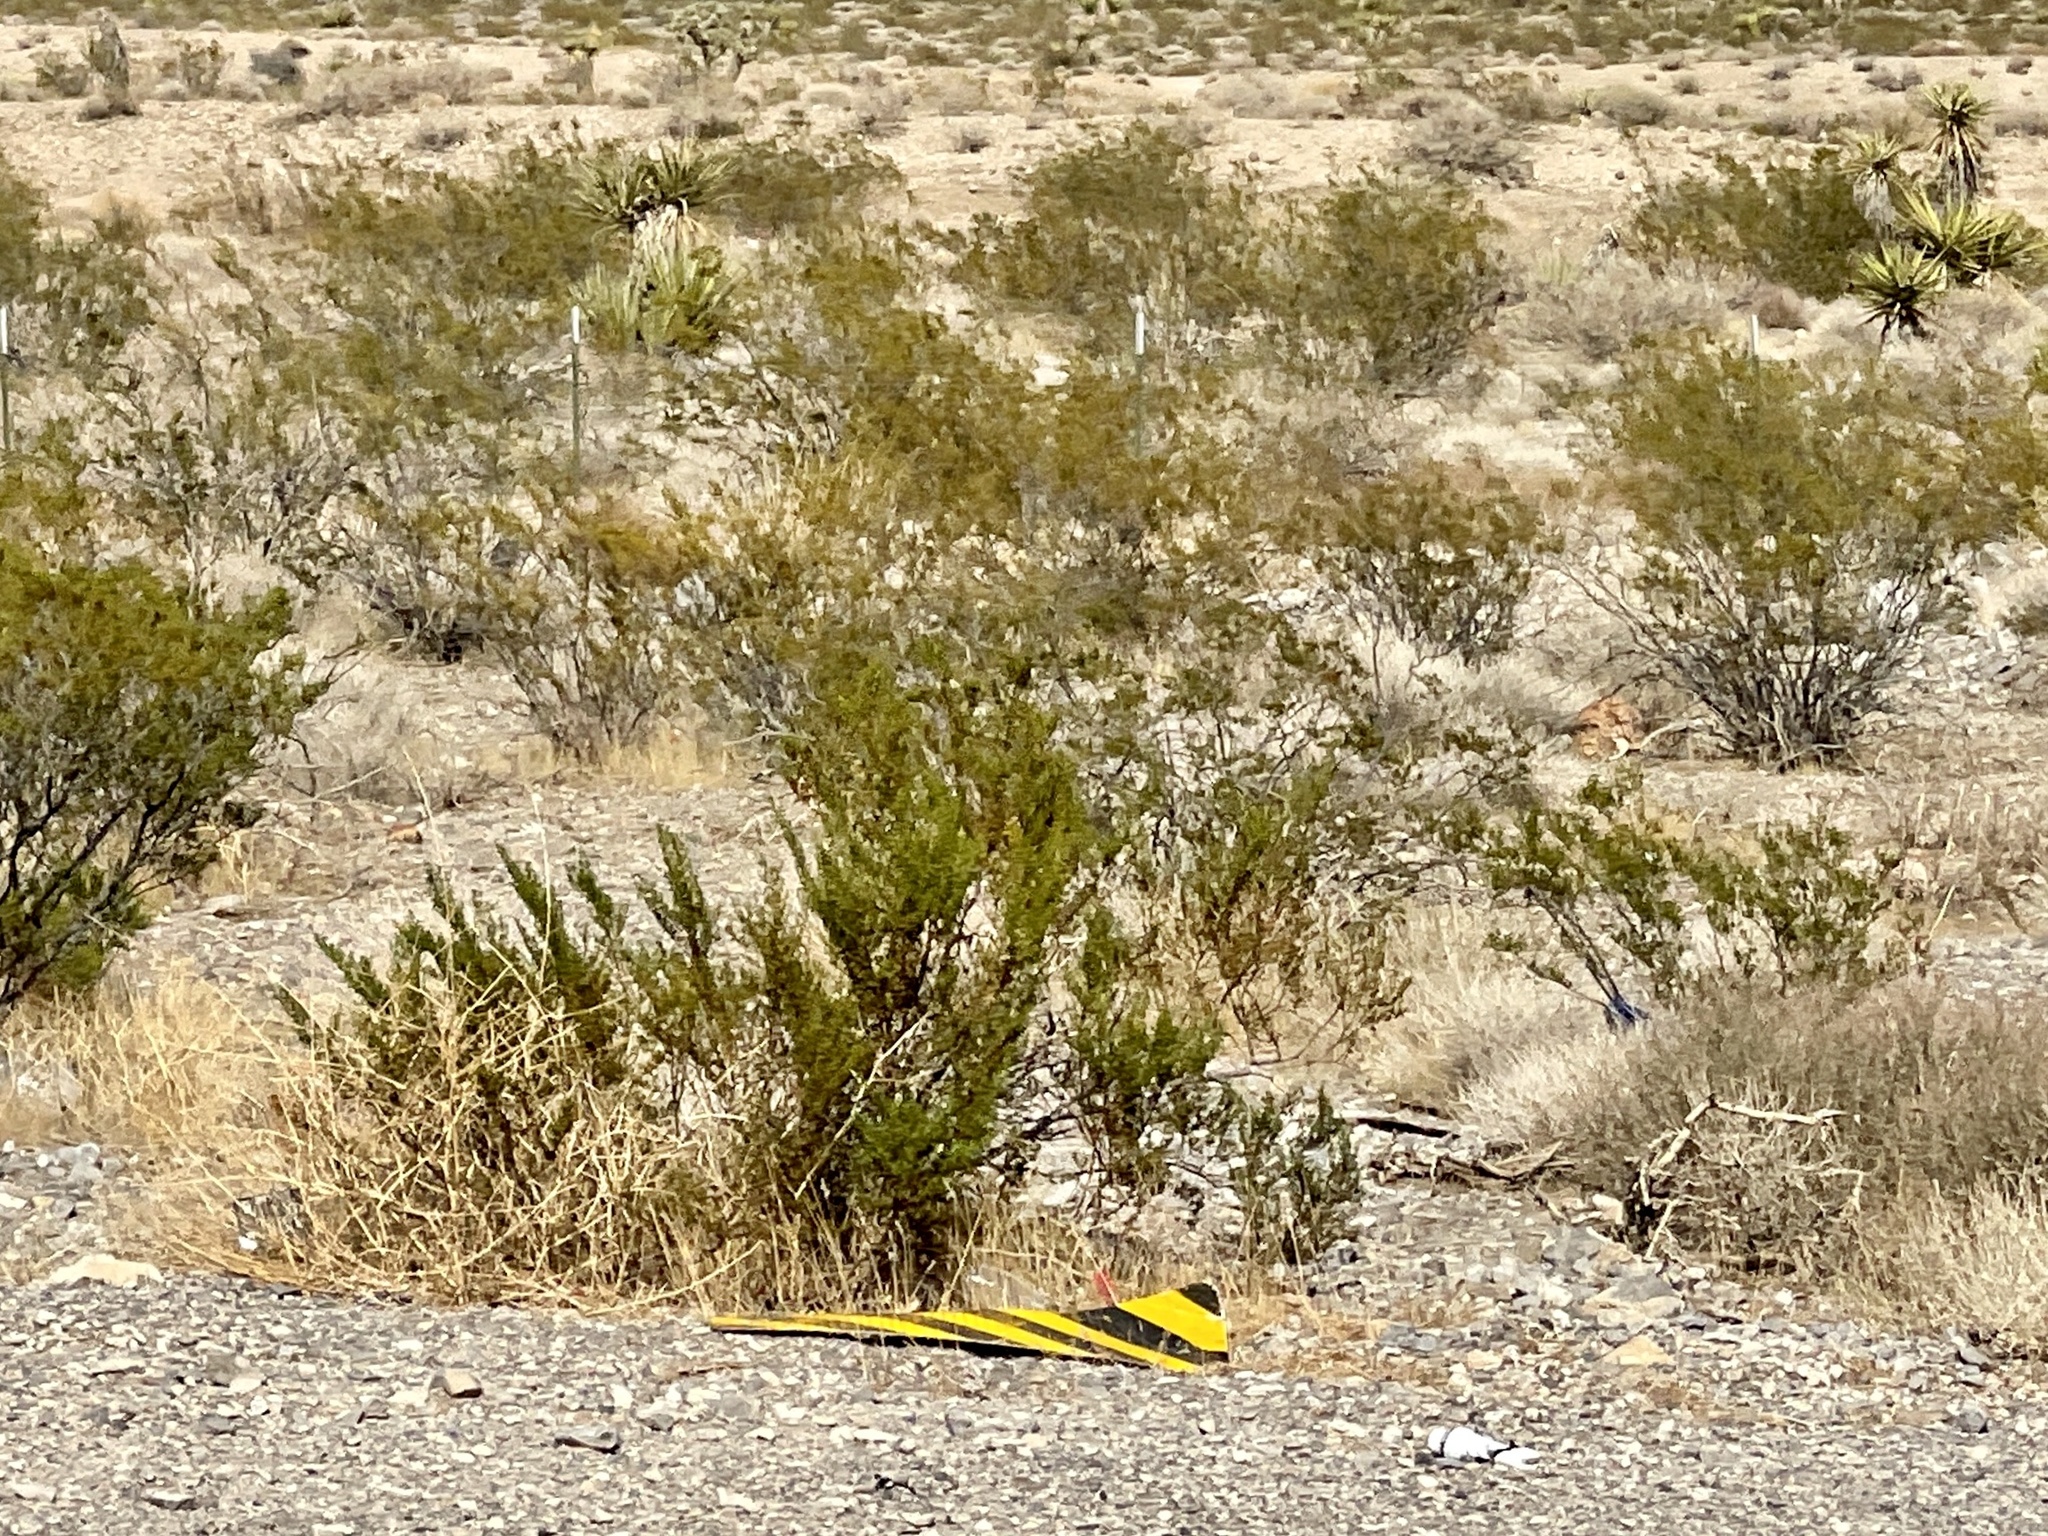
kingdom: Plantae
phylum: Tracheophyta
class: Magnoliopsida
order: Zygophyllales
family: Zygophyllaceae
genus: Larrea
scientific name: Larrea tridentata
